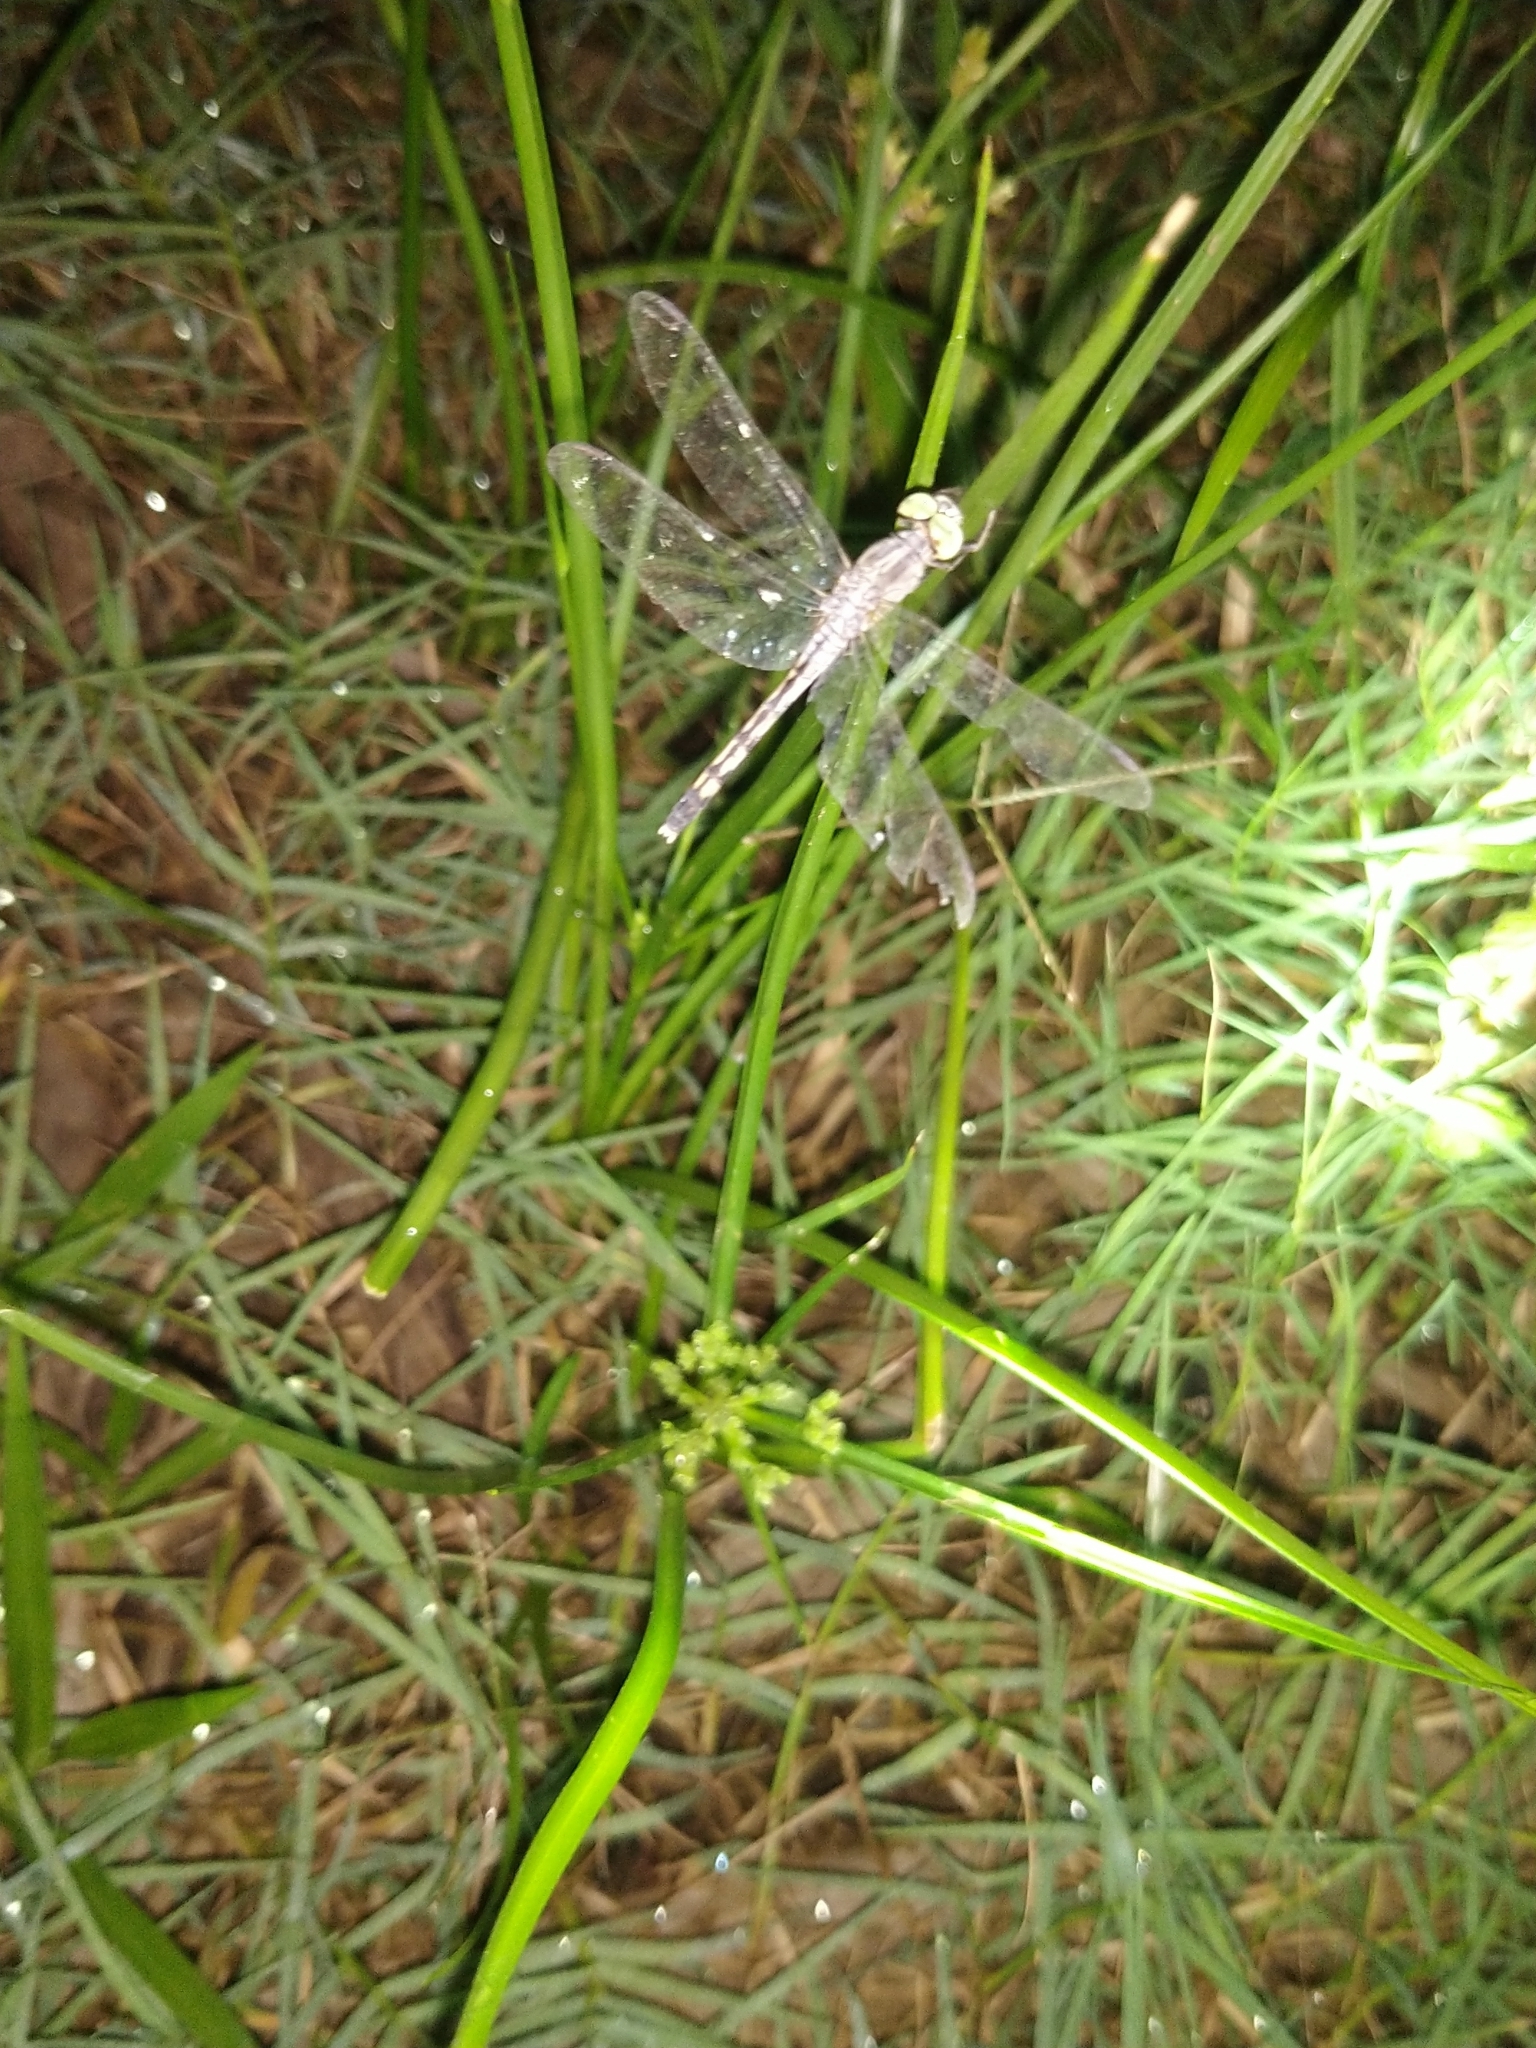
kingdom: Animalia
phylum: Arthropoda
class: Insecta
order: Odonata
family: Libellulidae
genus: Diplacodes
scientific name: Diplacodes trivialis
